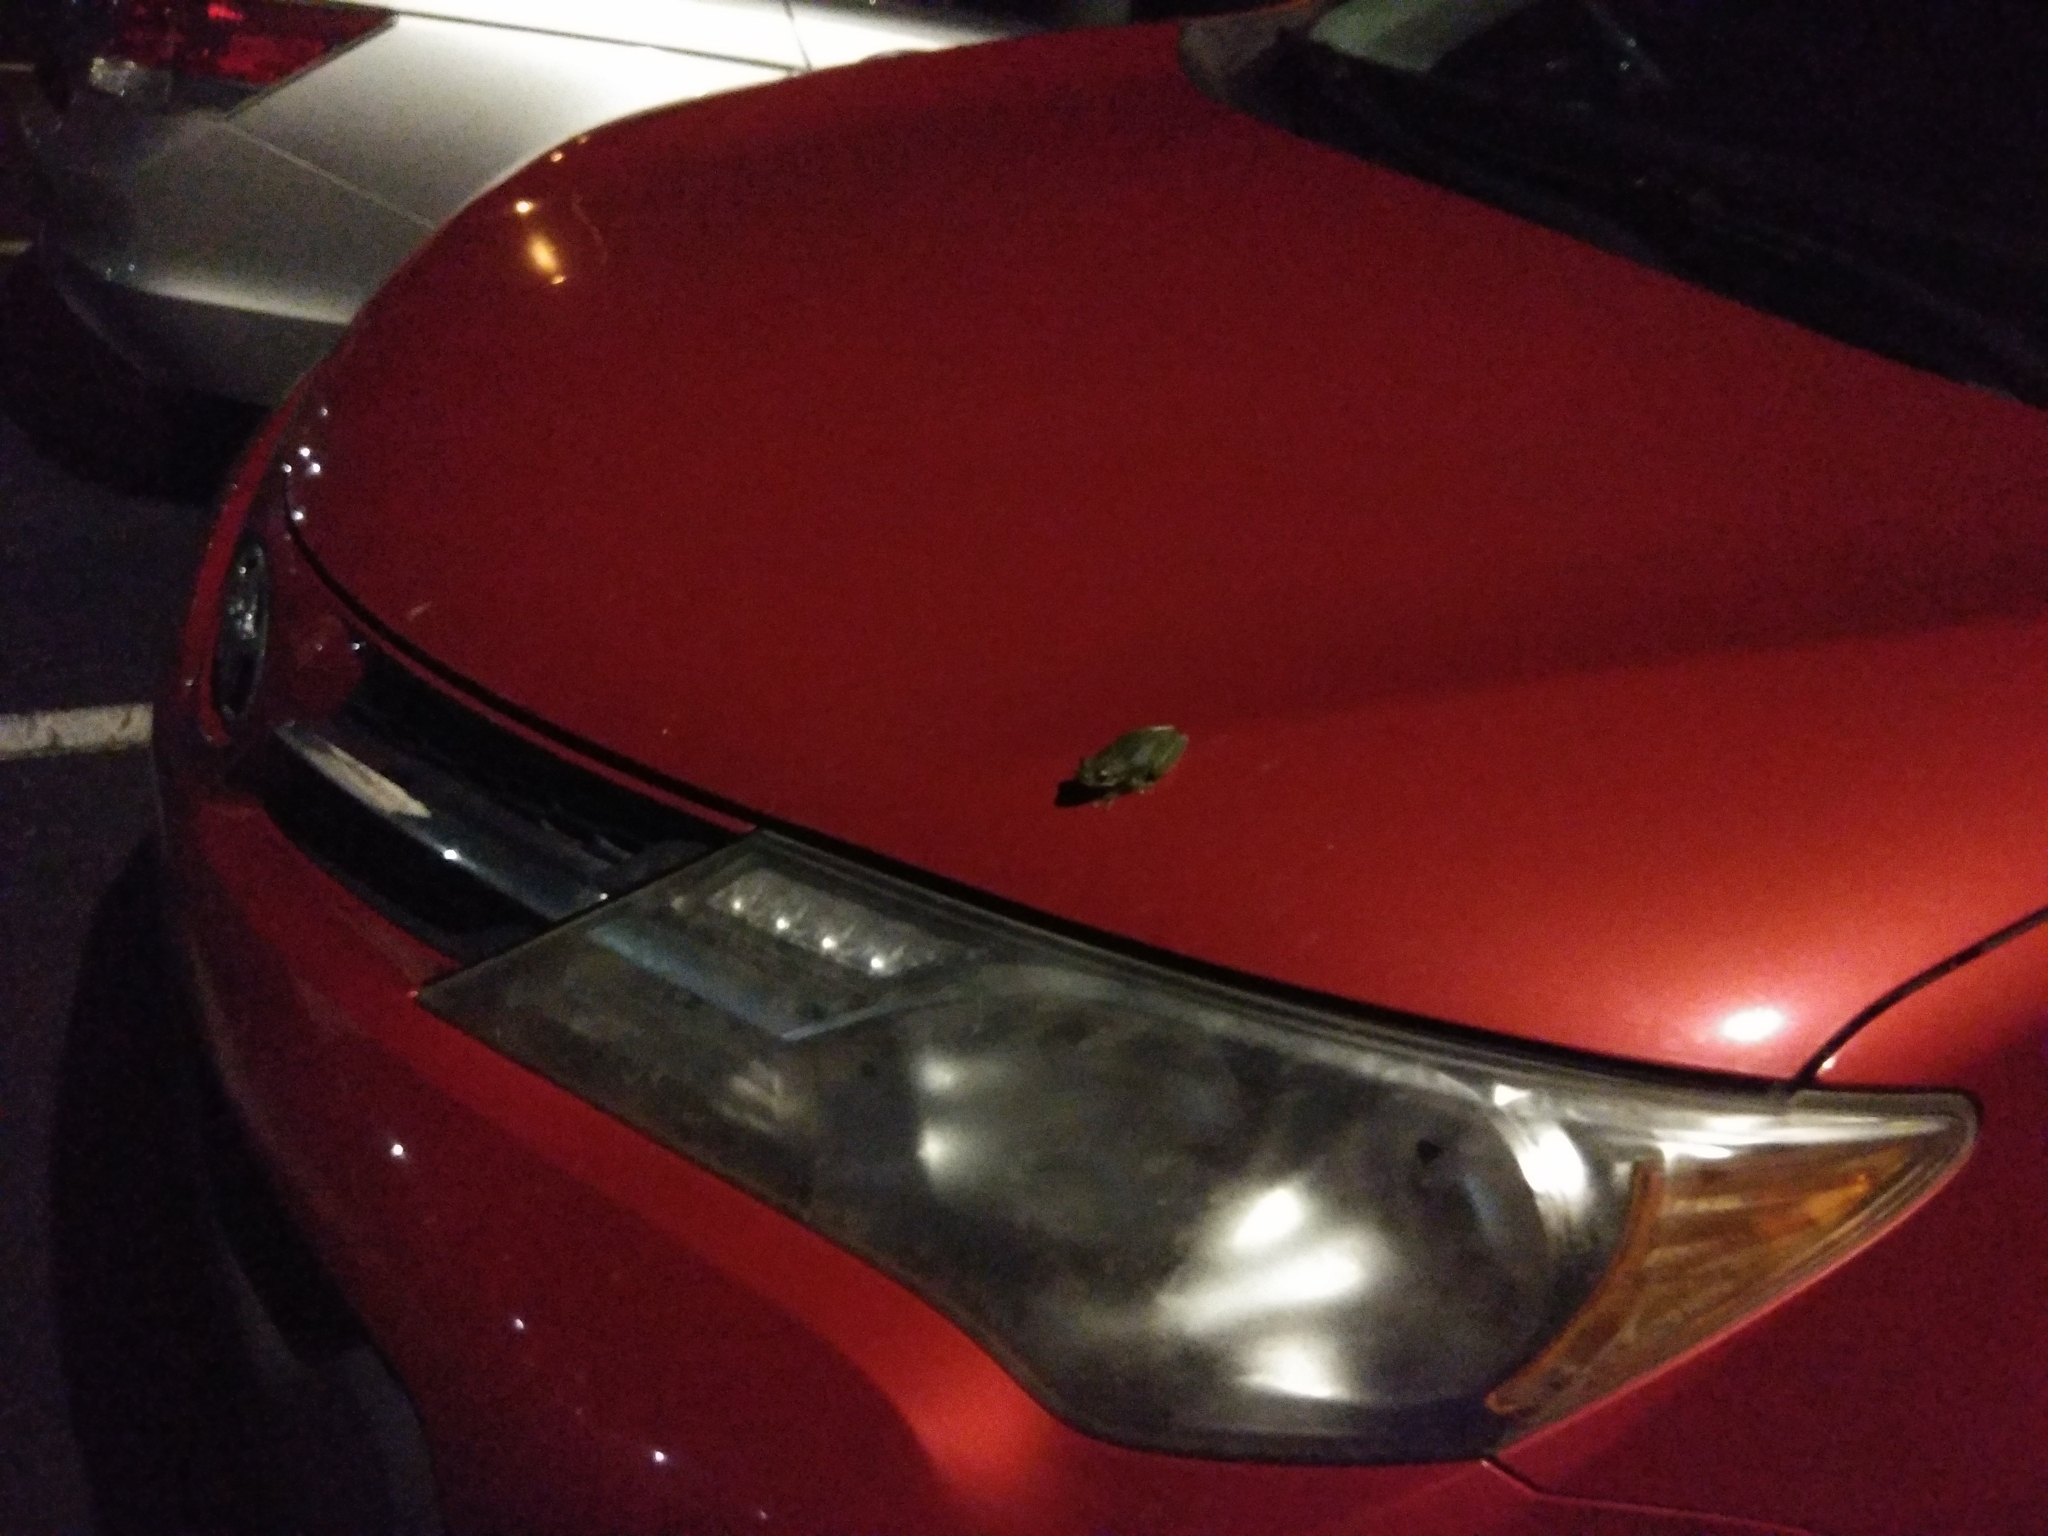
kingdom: Animalia
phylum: Chordata
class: Amphibia
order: Anura
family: Hylidae
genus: Osteopilus
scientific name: Osteopilus septentrionalis
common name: Cuban treefrog
